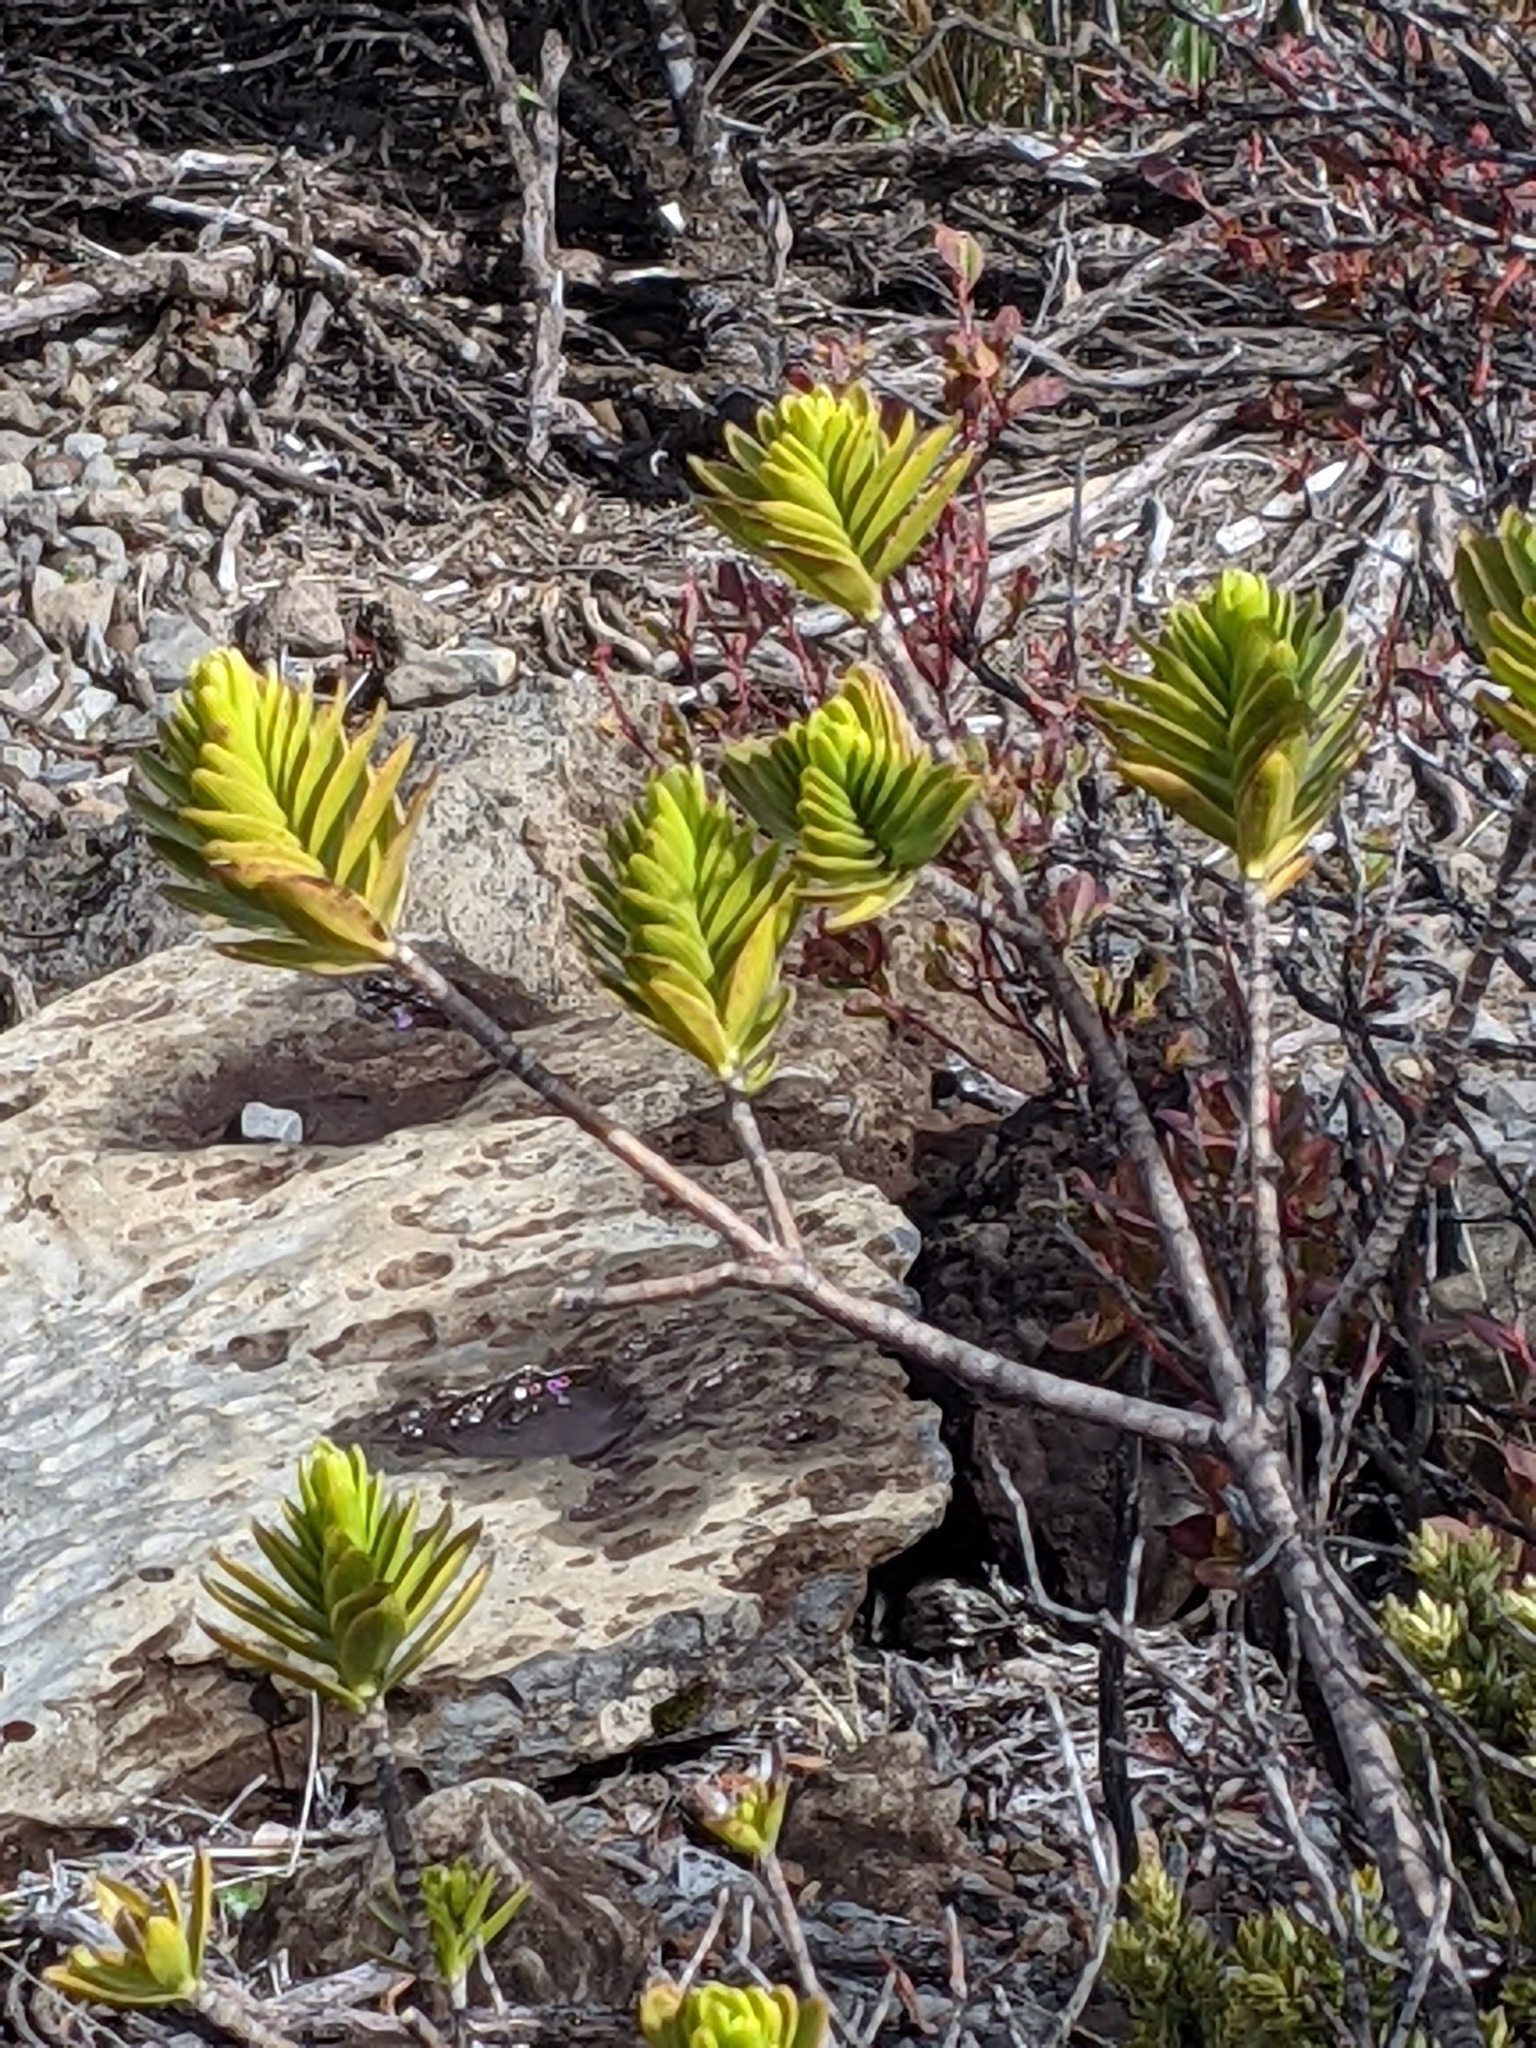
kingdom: Plantae
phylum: Tracheophyta
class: Magnoliopsida
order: Asterales
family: Asteraceae
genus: Dubautia
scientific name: Dubautia menziesii
